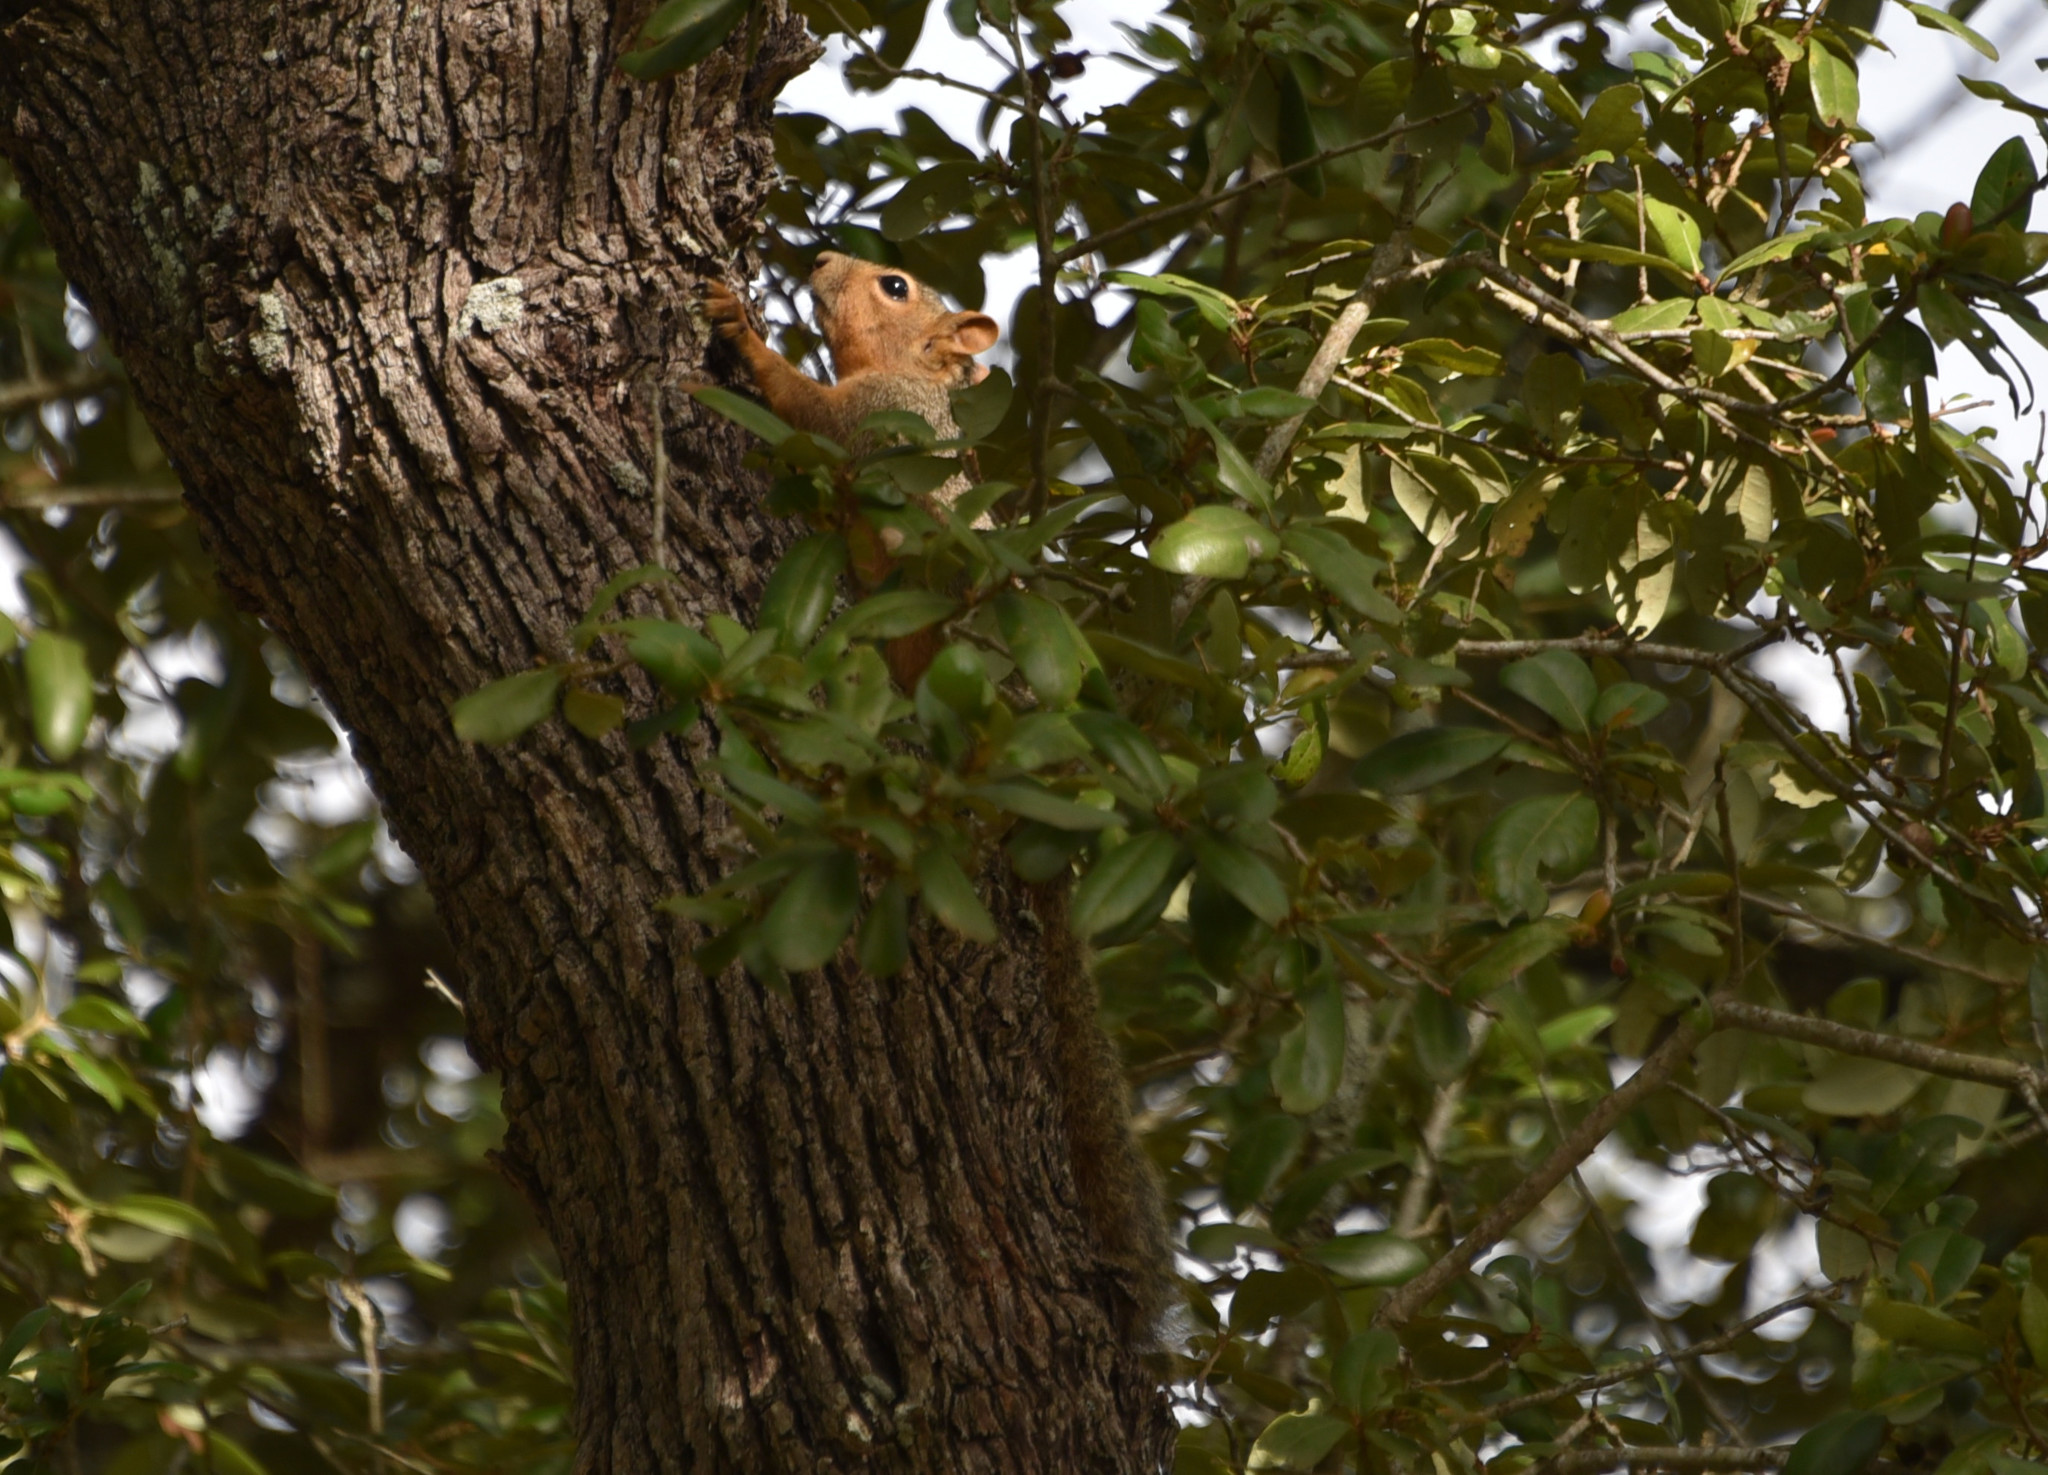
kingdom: Animalia
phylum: Chordata
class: Mammalia
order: Rodentia
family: Sciuridae
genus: Sciurus
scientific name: Sciurus niger
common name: Fox squirrel
